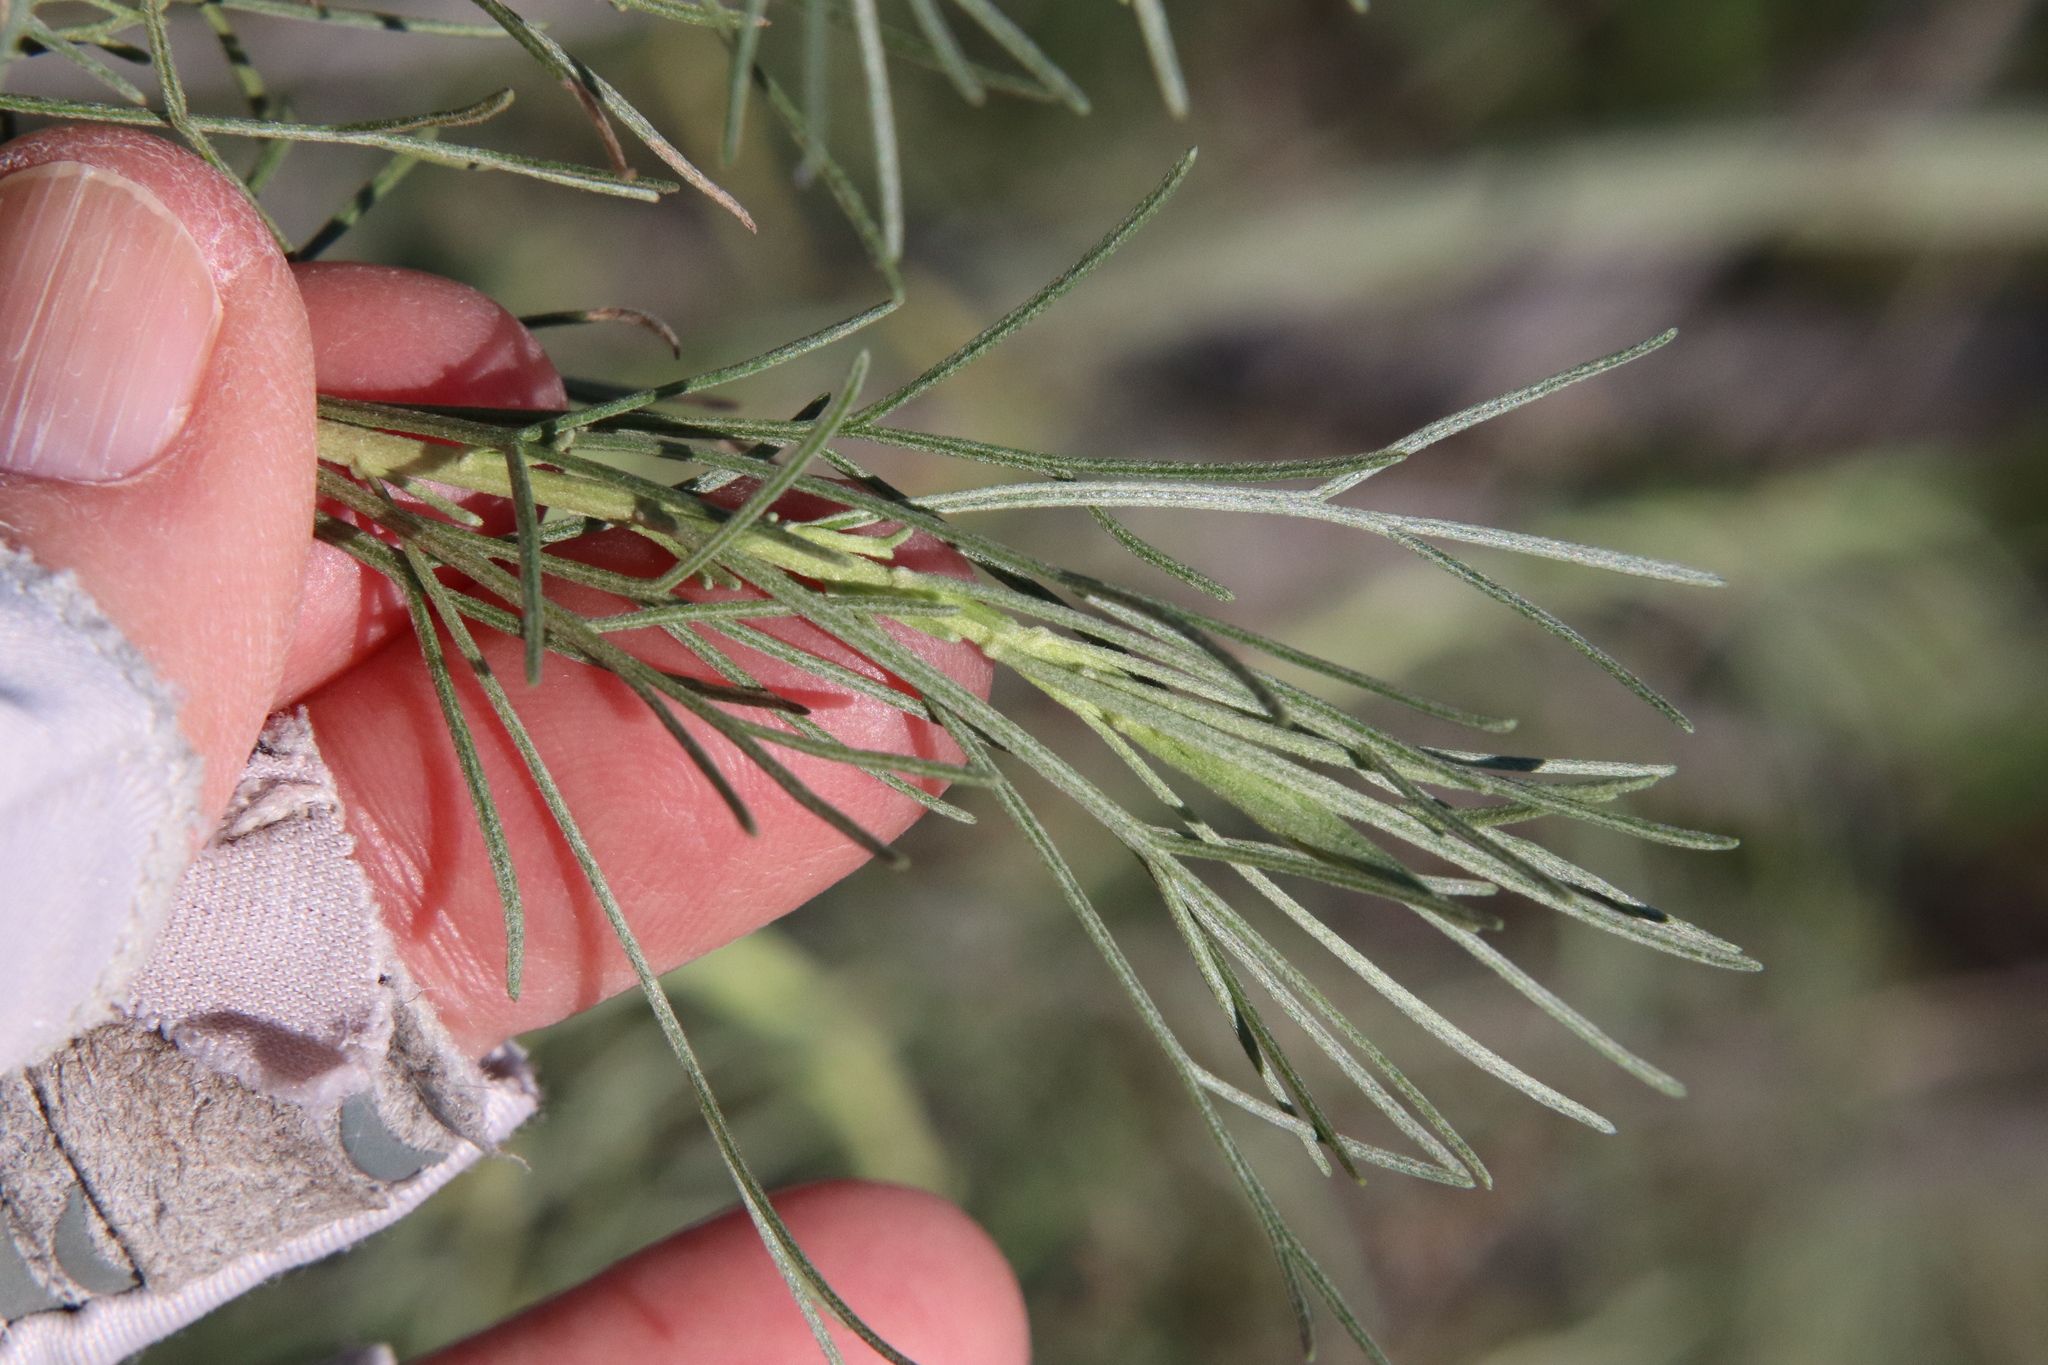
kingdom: Plantae
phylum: Tracheophyta
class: Magnoliopsida
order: Asterales
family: Asteraceae
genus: Artemisia
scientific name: Artemisia californica
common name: California sagebrush
